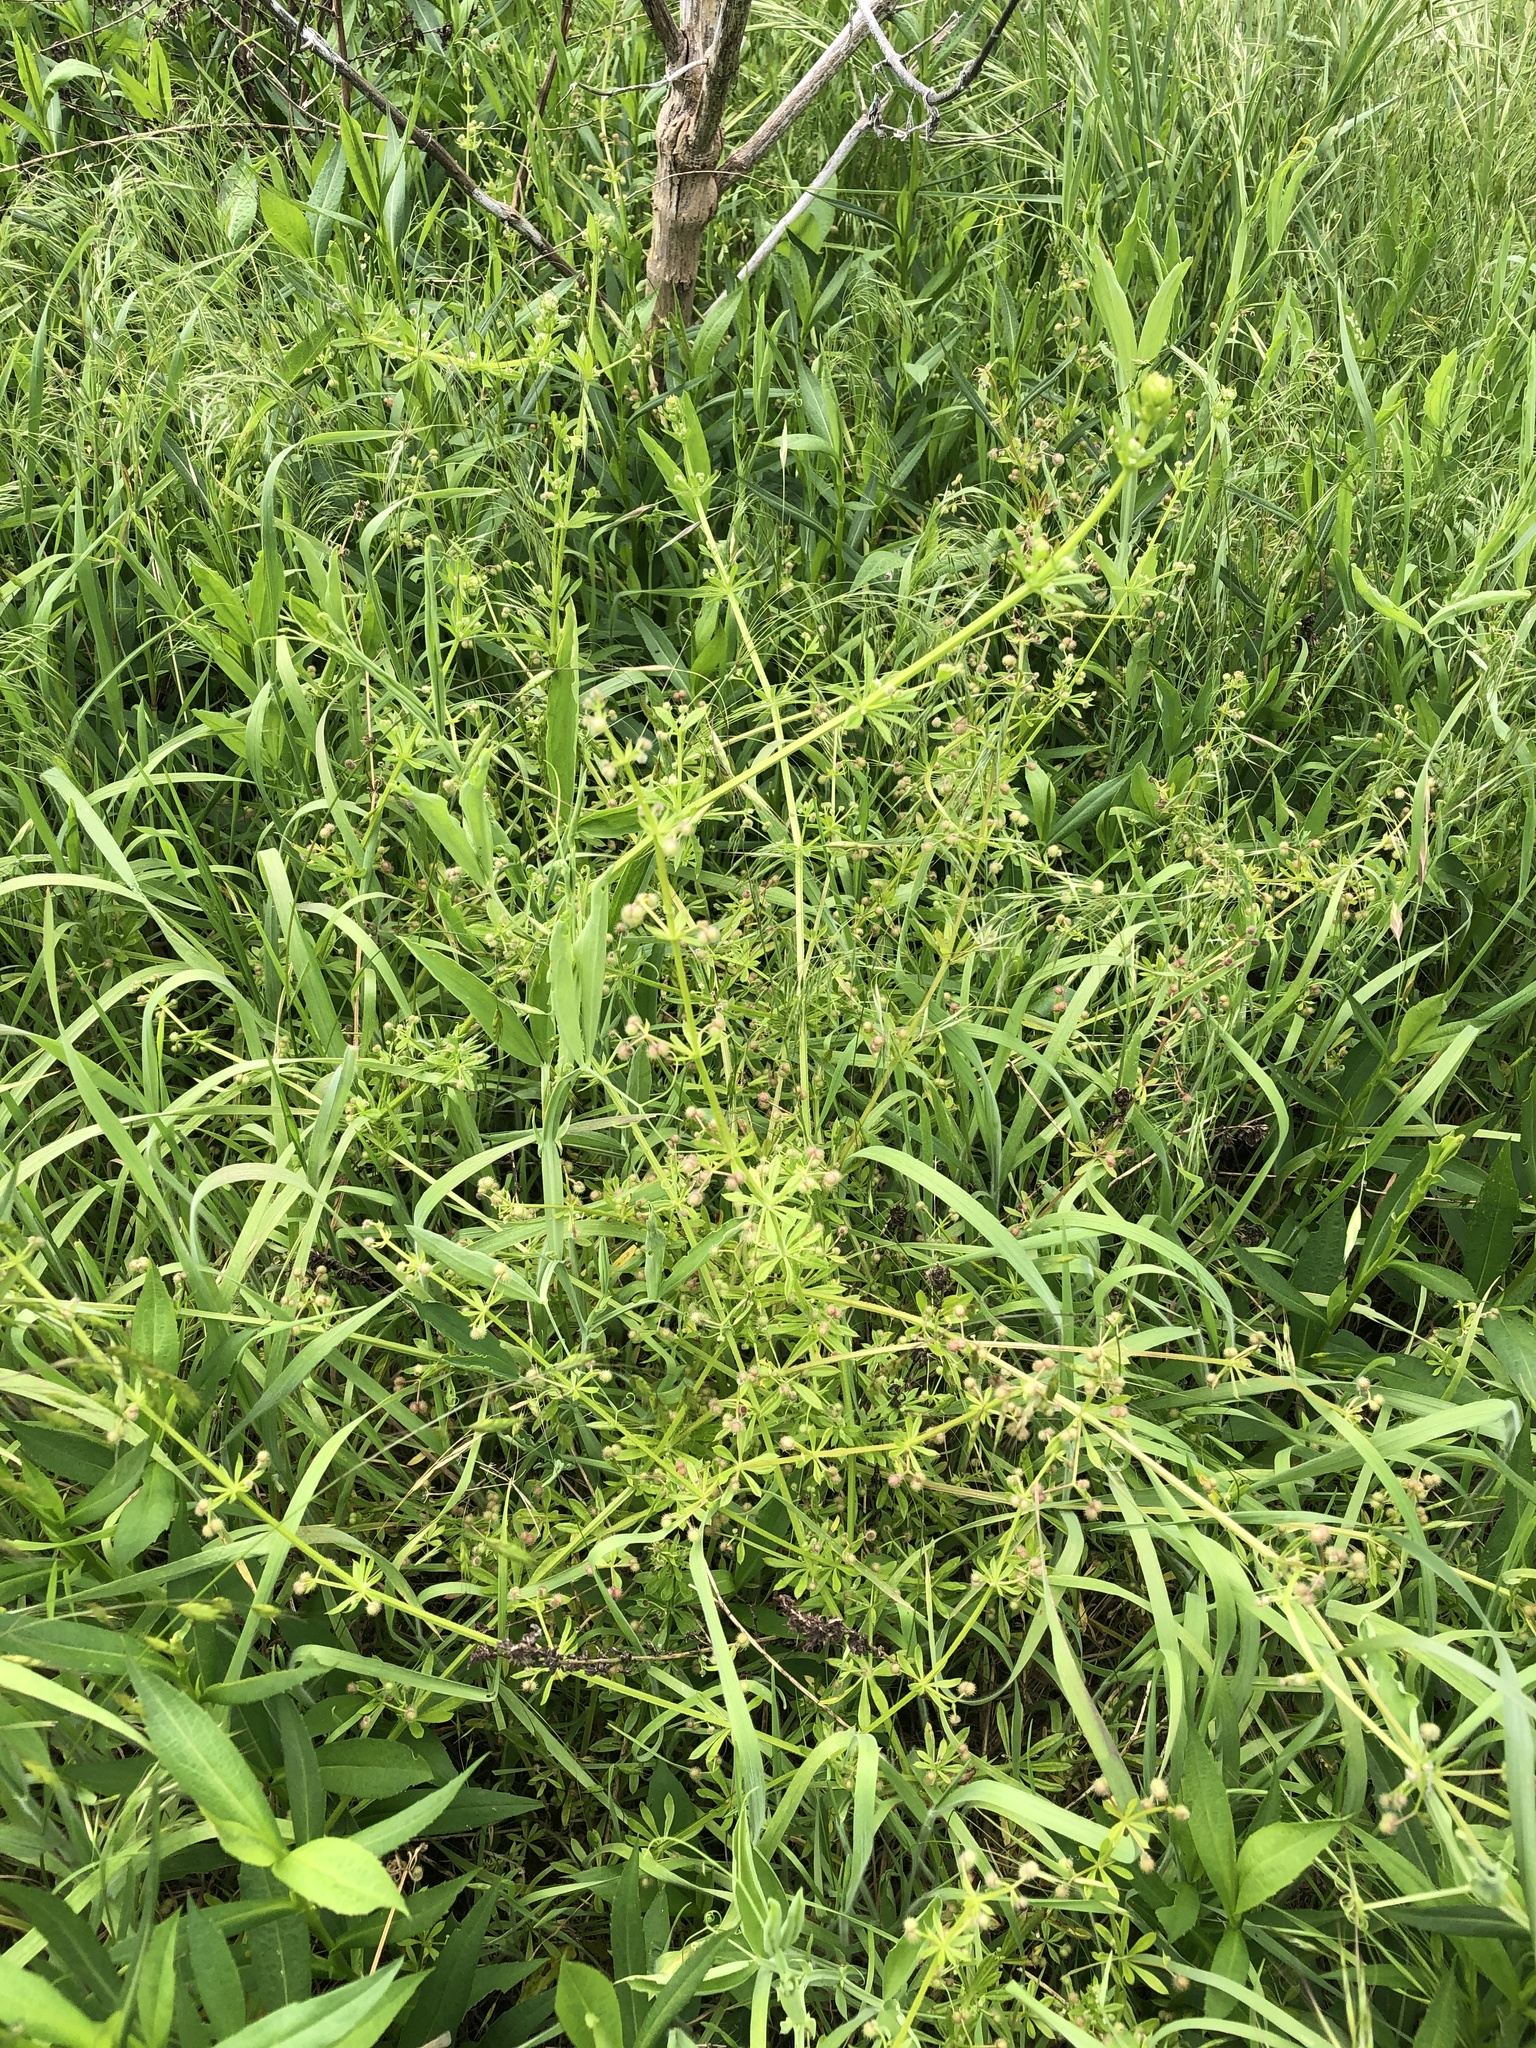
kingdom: Plantae
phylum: Tracheophyta
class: Magnoliopsida
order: Gentianales
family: Rubiaceae
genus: Galium
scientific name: Galium aparine
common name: Cleavers
